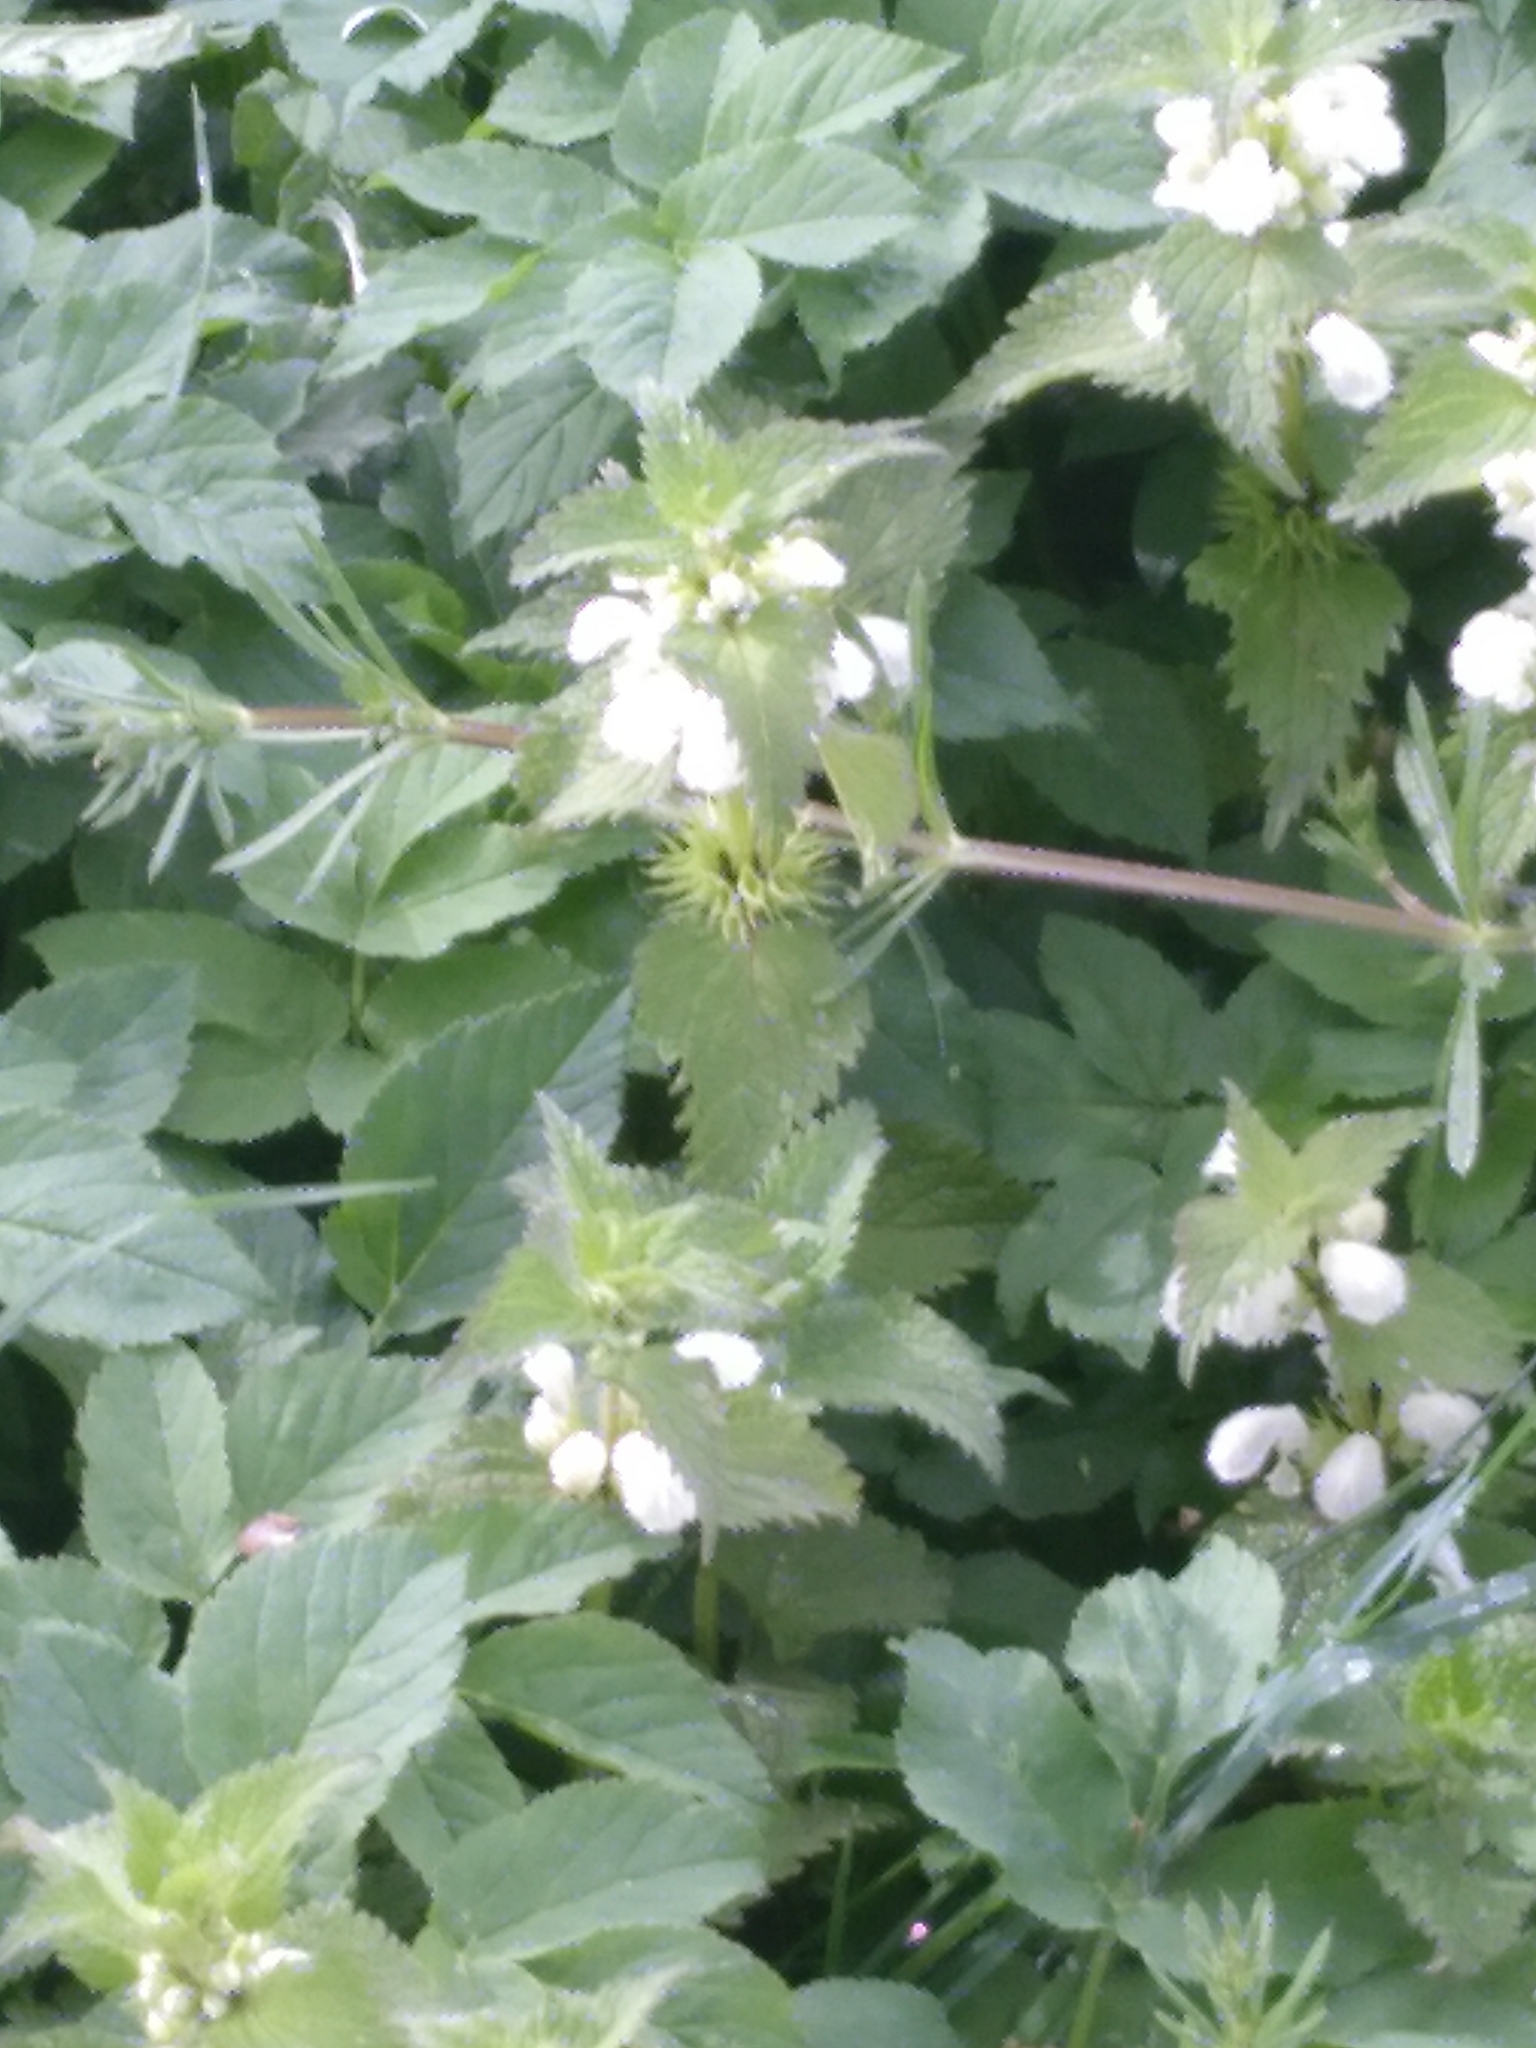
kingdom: Plantae
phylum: Tracheophyta
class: Magnoliopsida
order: Lamiales
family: Lamiaceae
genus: Lamium
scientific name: Lamium album
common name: White dead-nettle
